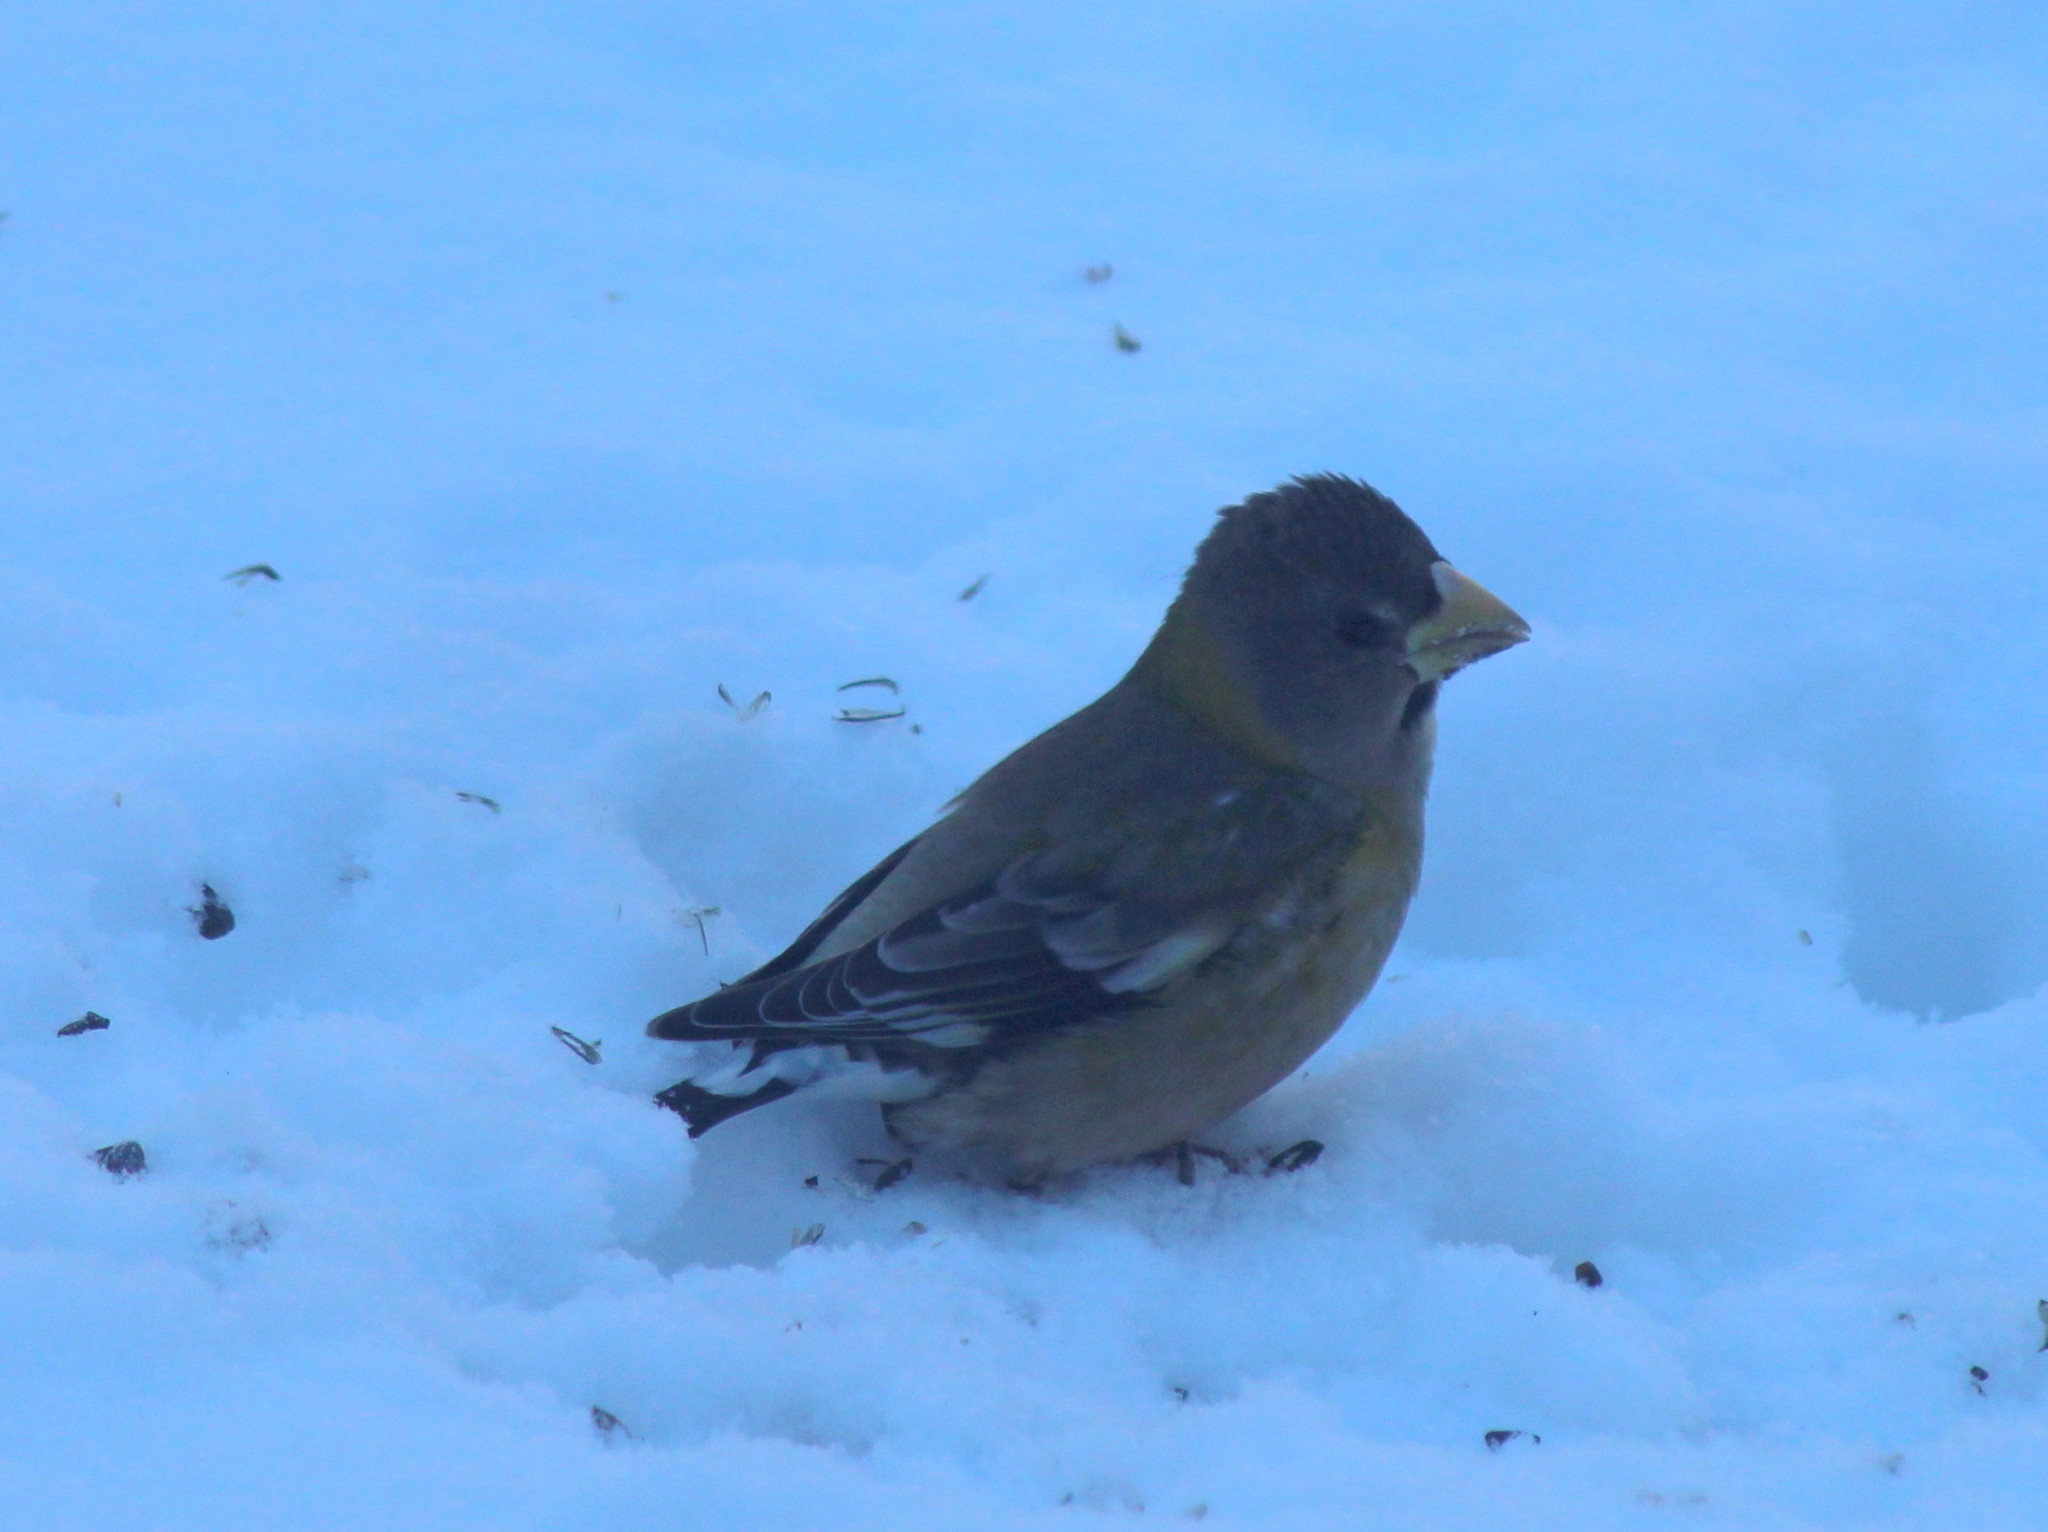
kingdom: Animalia
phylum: Chordata
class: Aves
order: Passeriformes
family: Fringillidae
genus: Hesperiphona
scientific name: Hesperiphona vespertina
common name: Evening grosbeak
